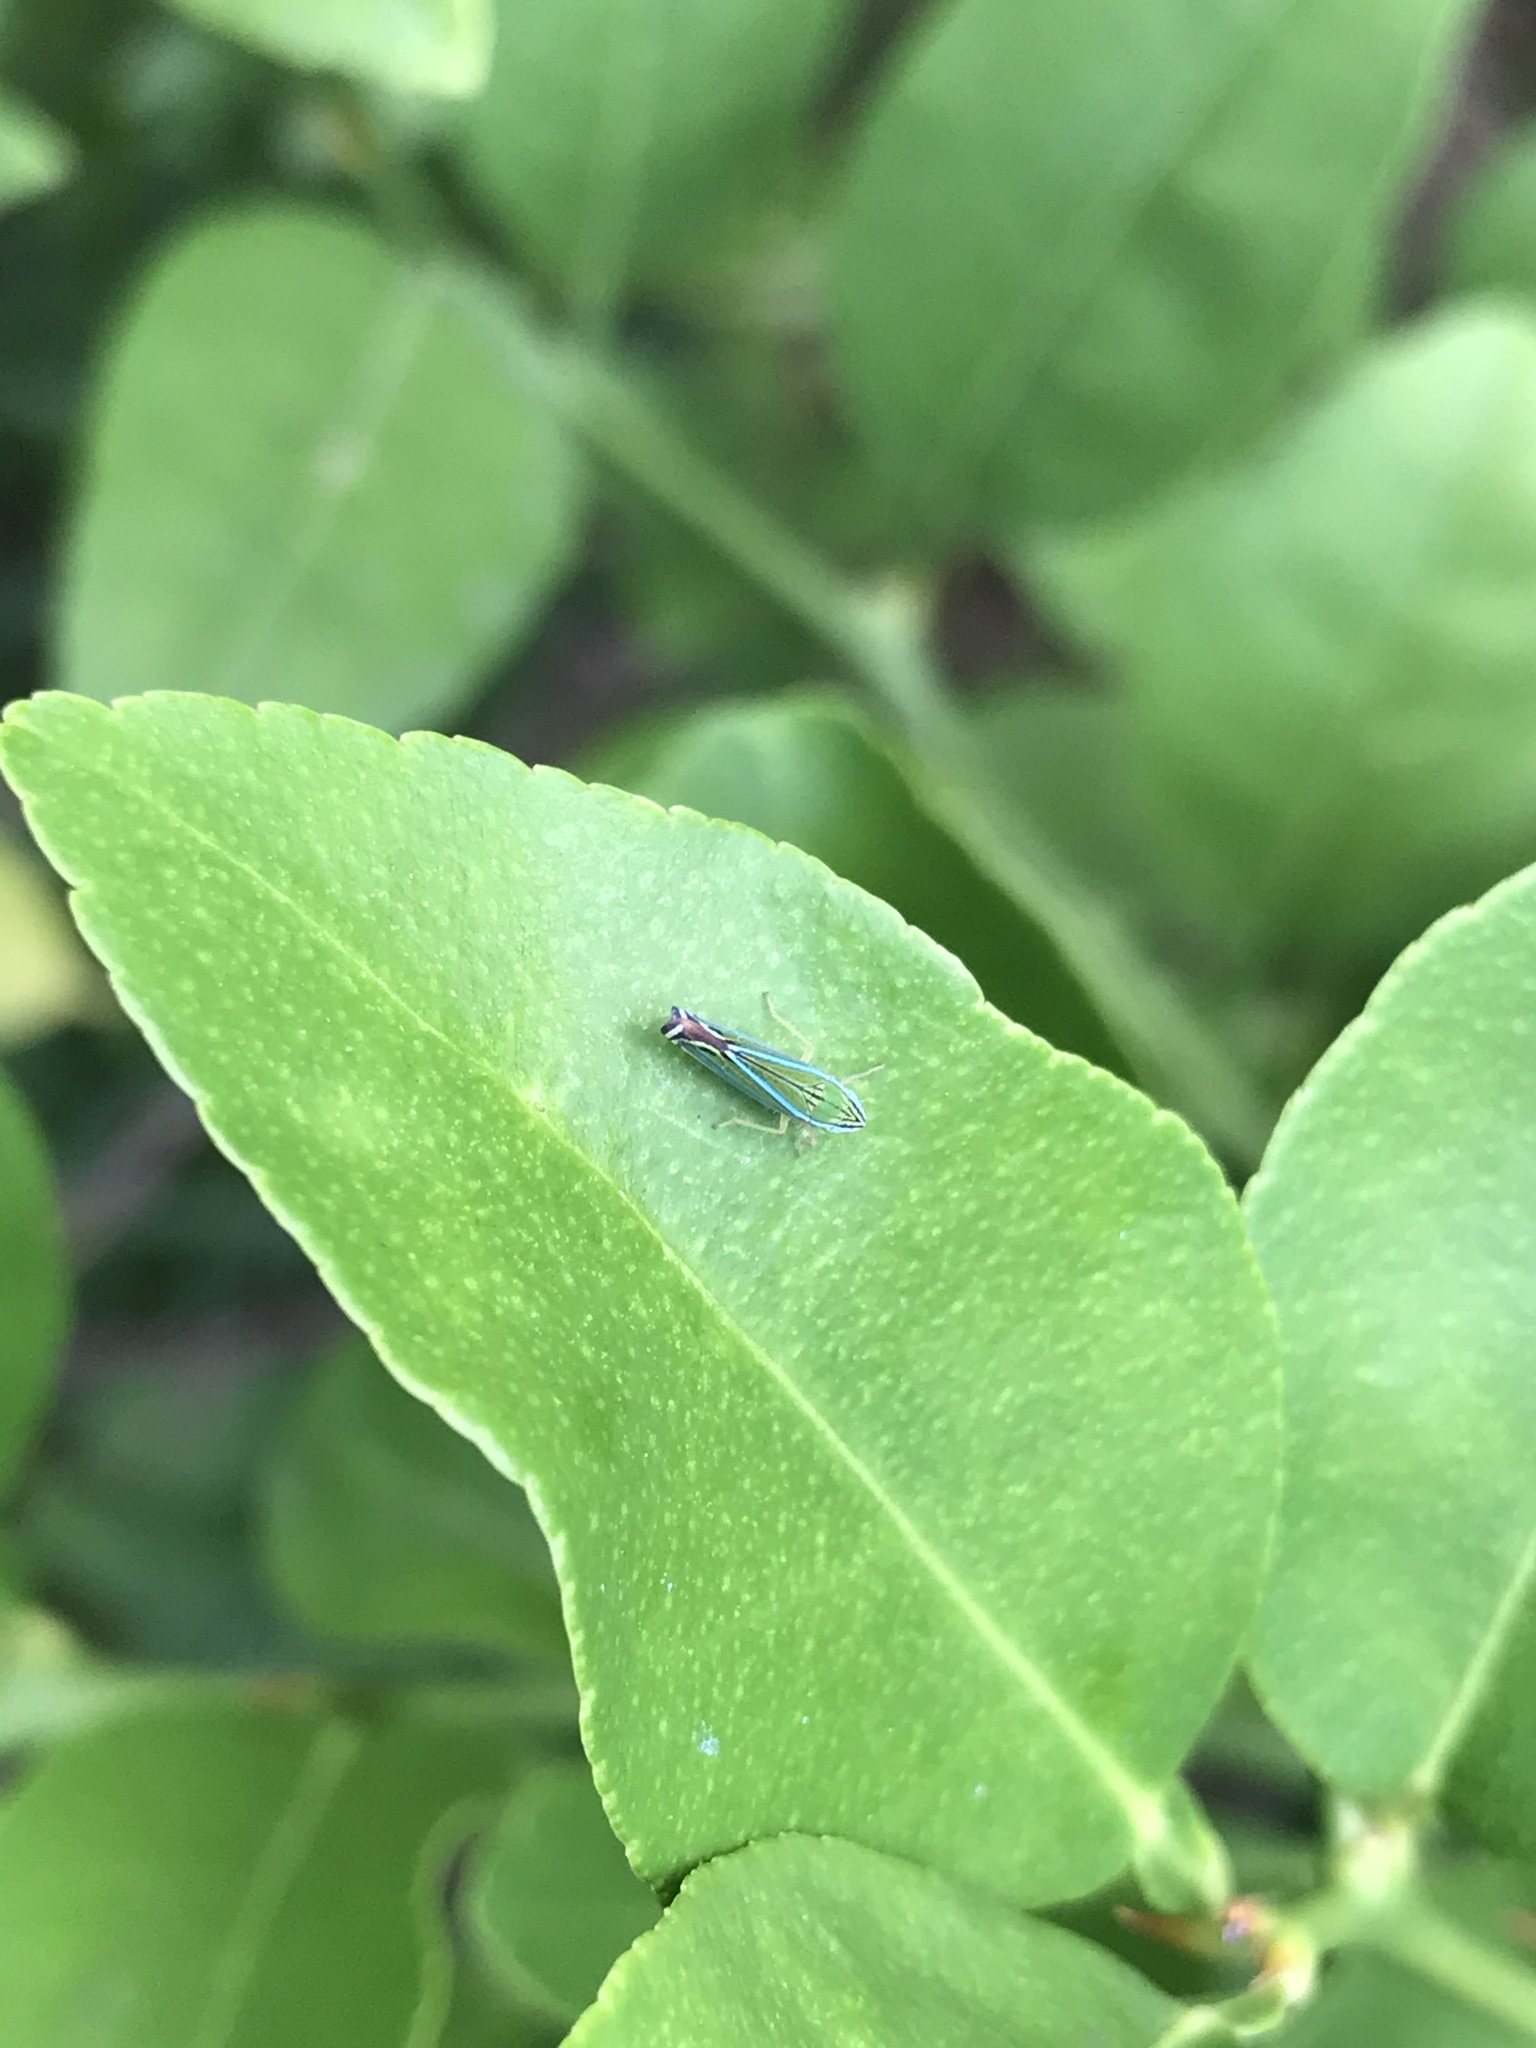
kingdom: Animalia
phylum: Arthropoda
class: Insecta
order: Hemiptera
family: Cicadellidae
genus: Sibovia
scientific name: Sibovia occatoria
